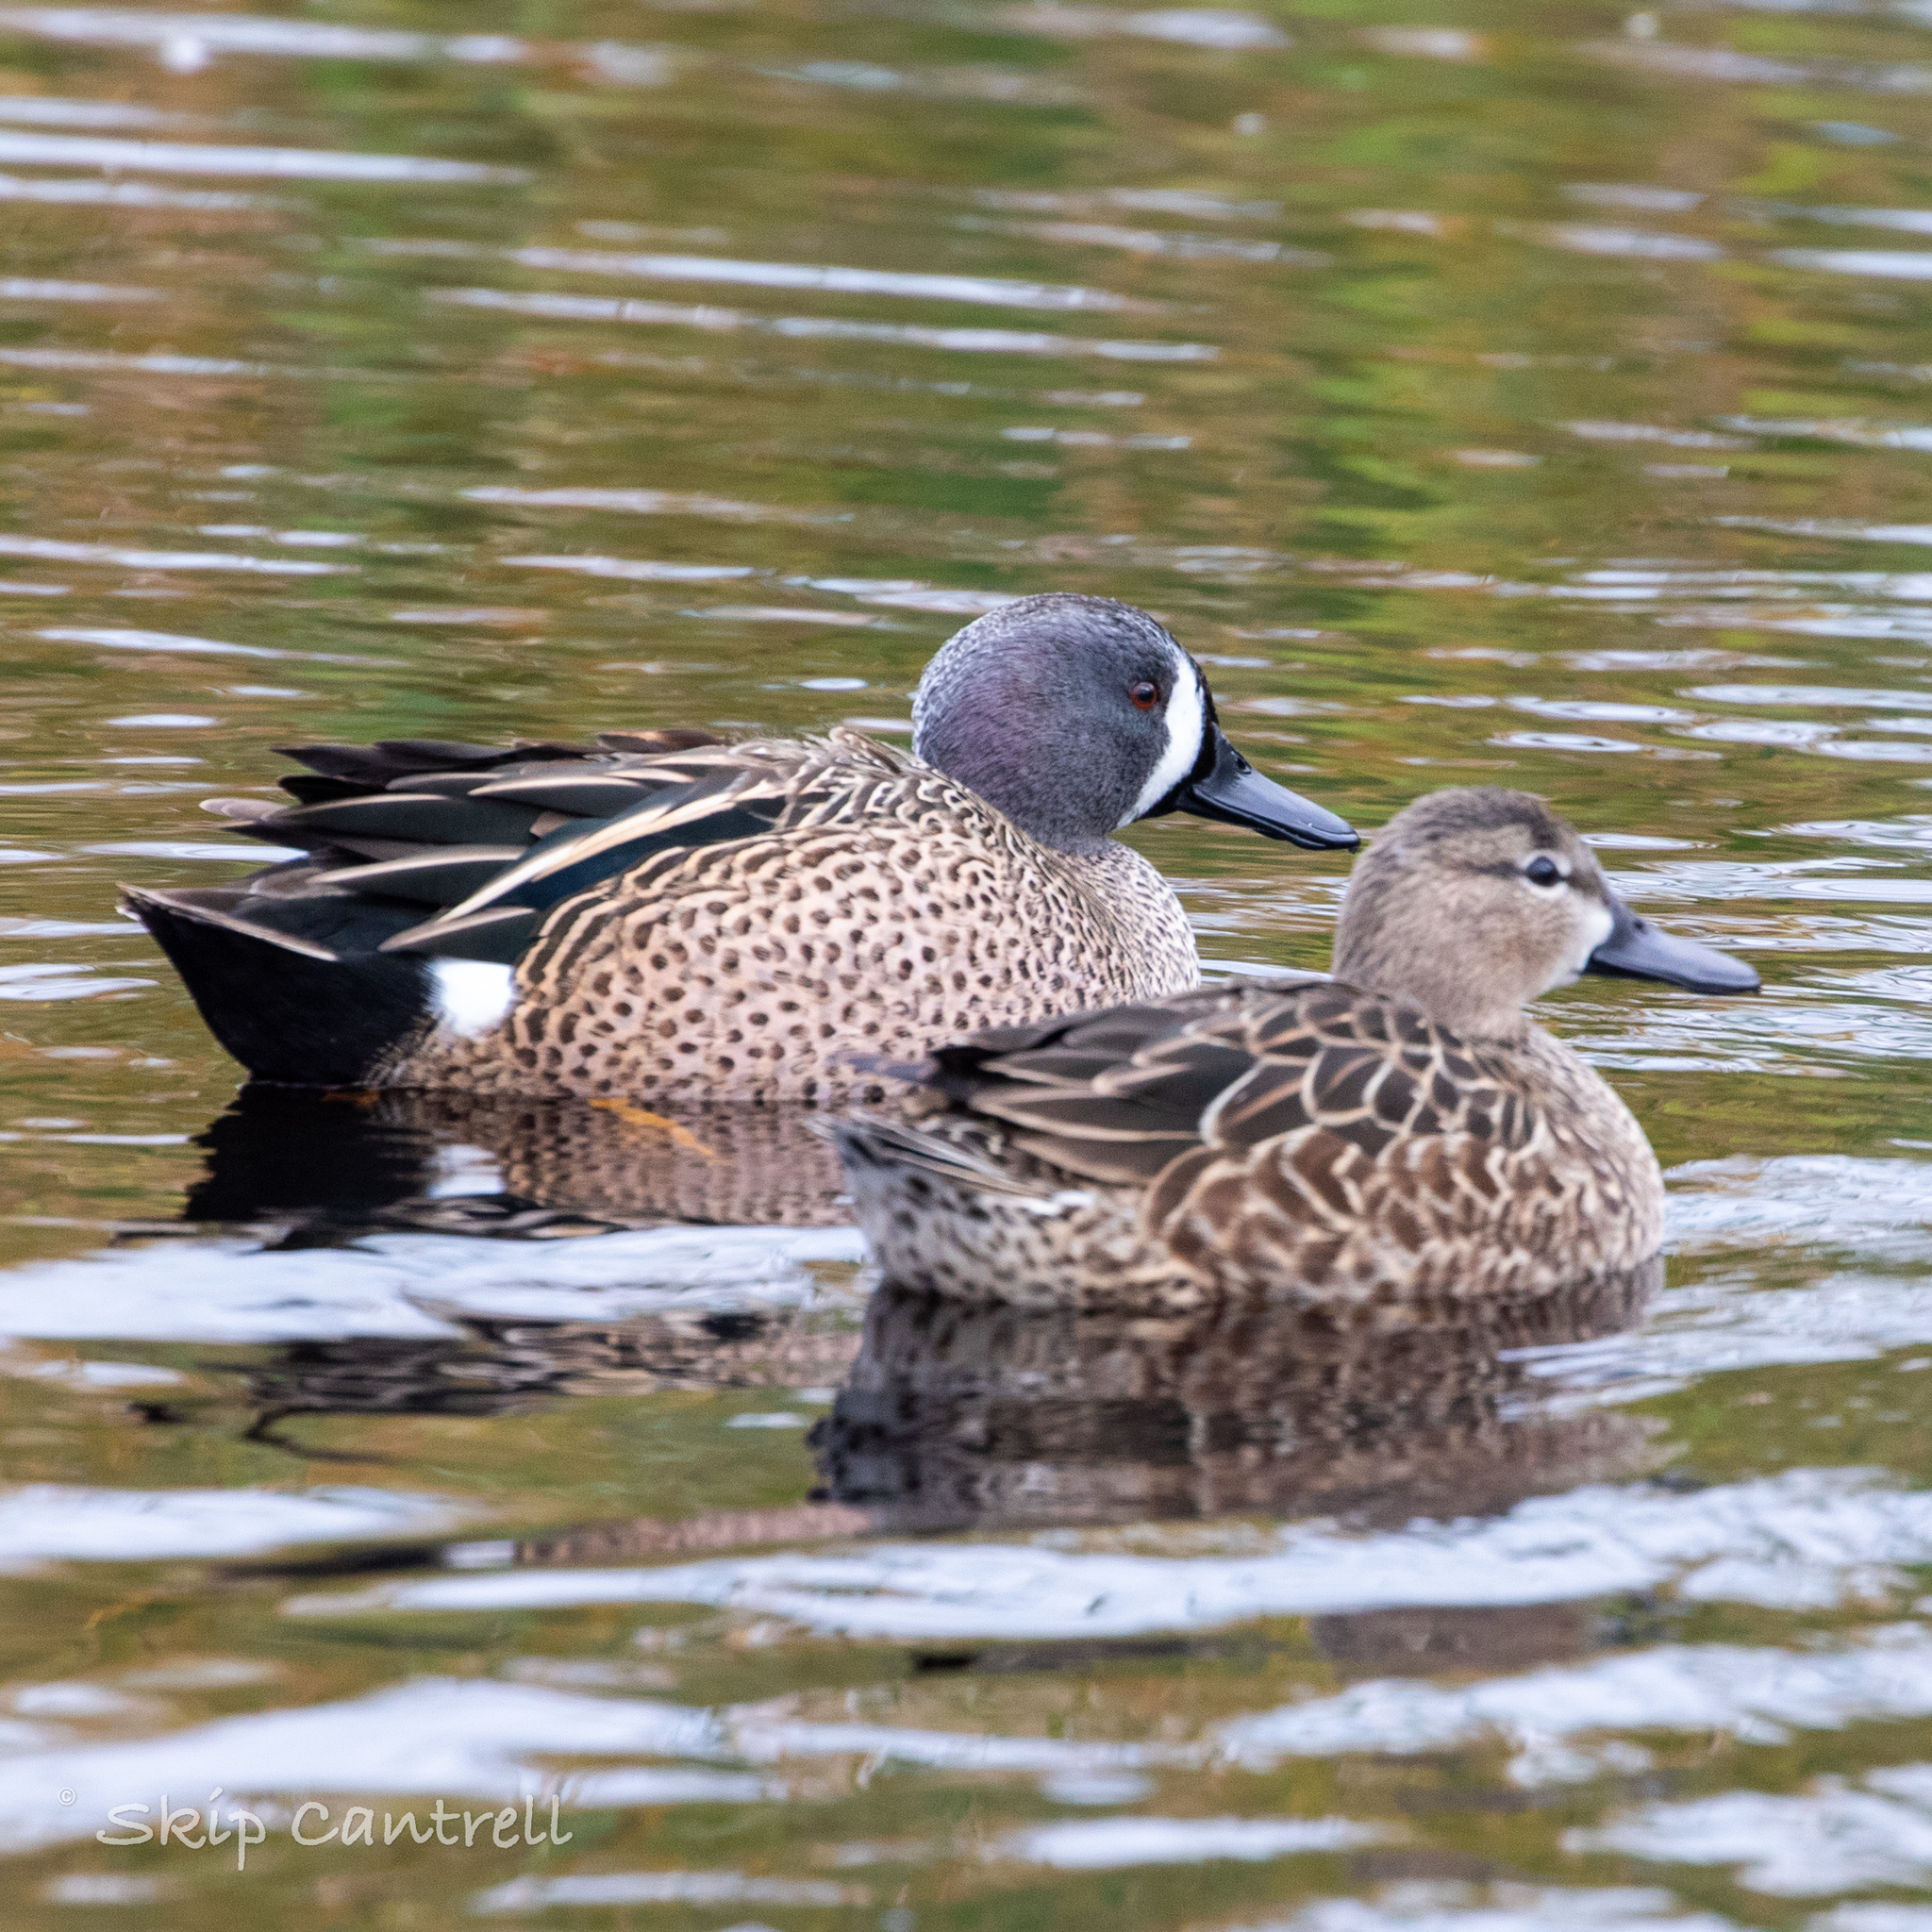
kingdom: Animalia
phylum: Chordata
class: Aves
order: Anseriformes
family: Anatidae
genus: Spatula
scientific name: Spatula discors
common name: Blue-winged teal
